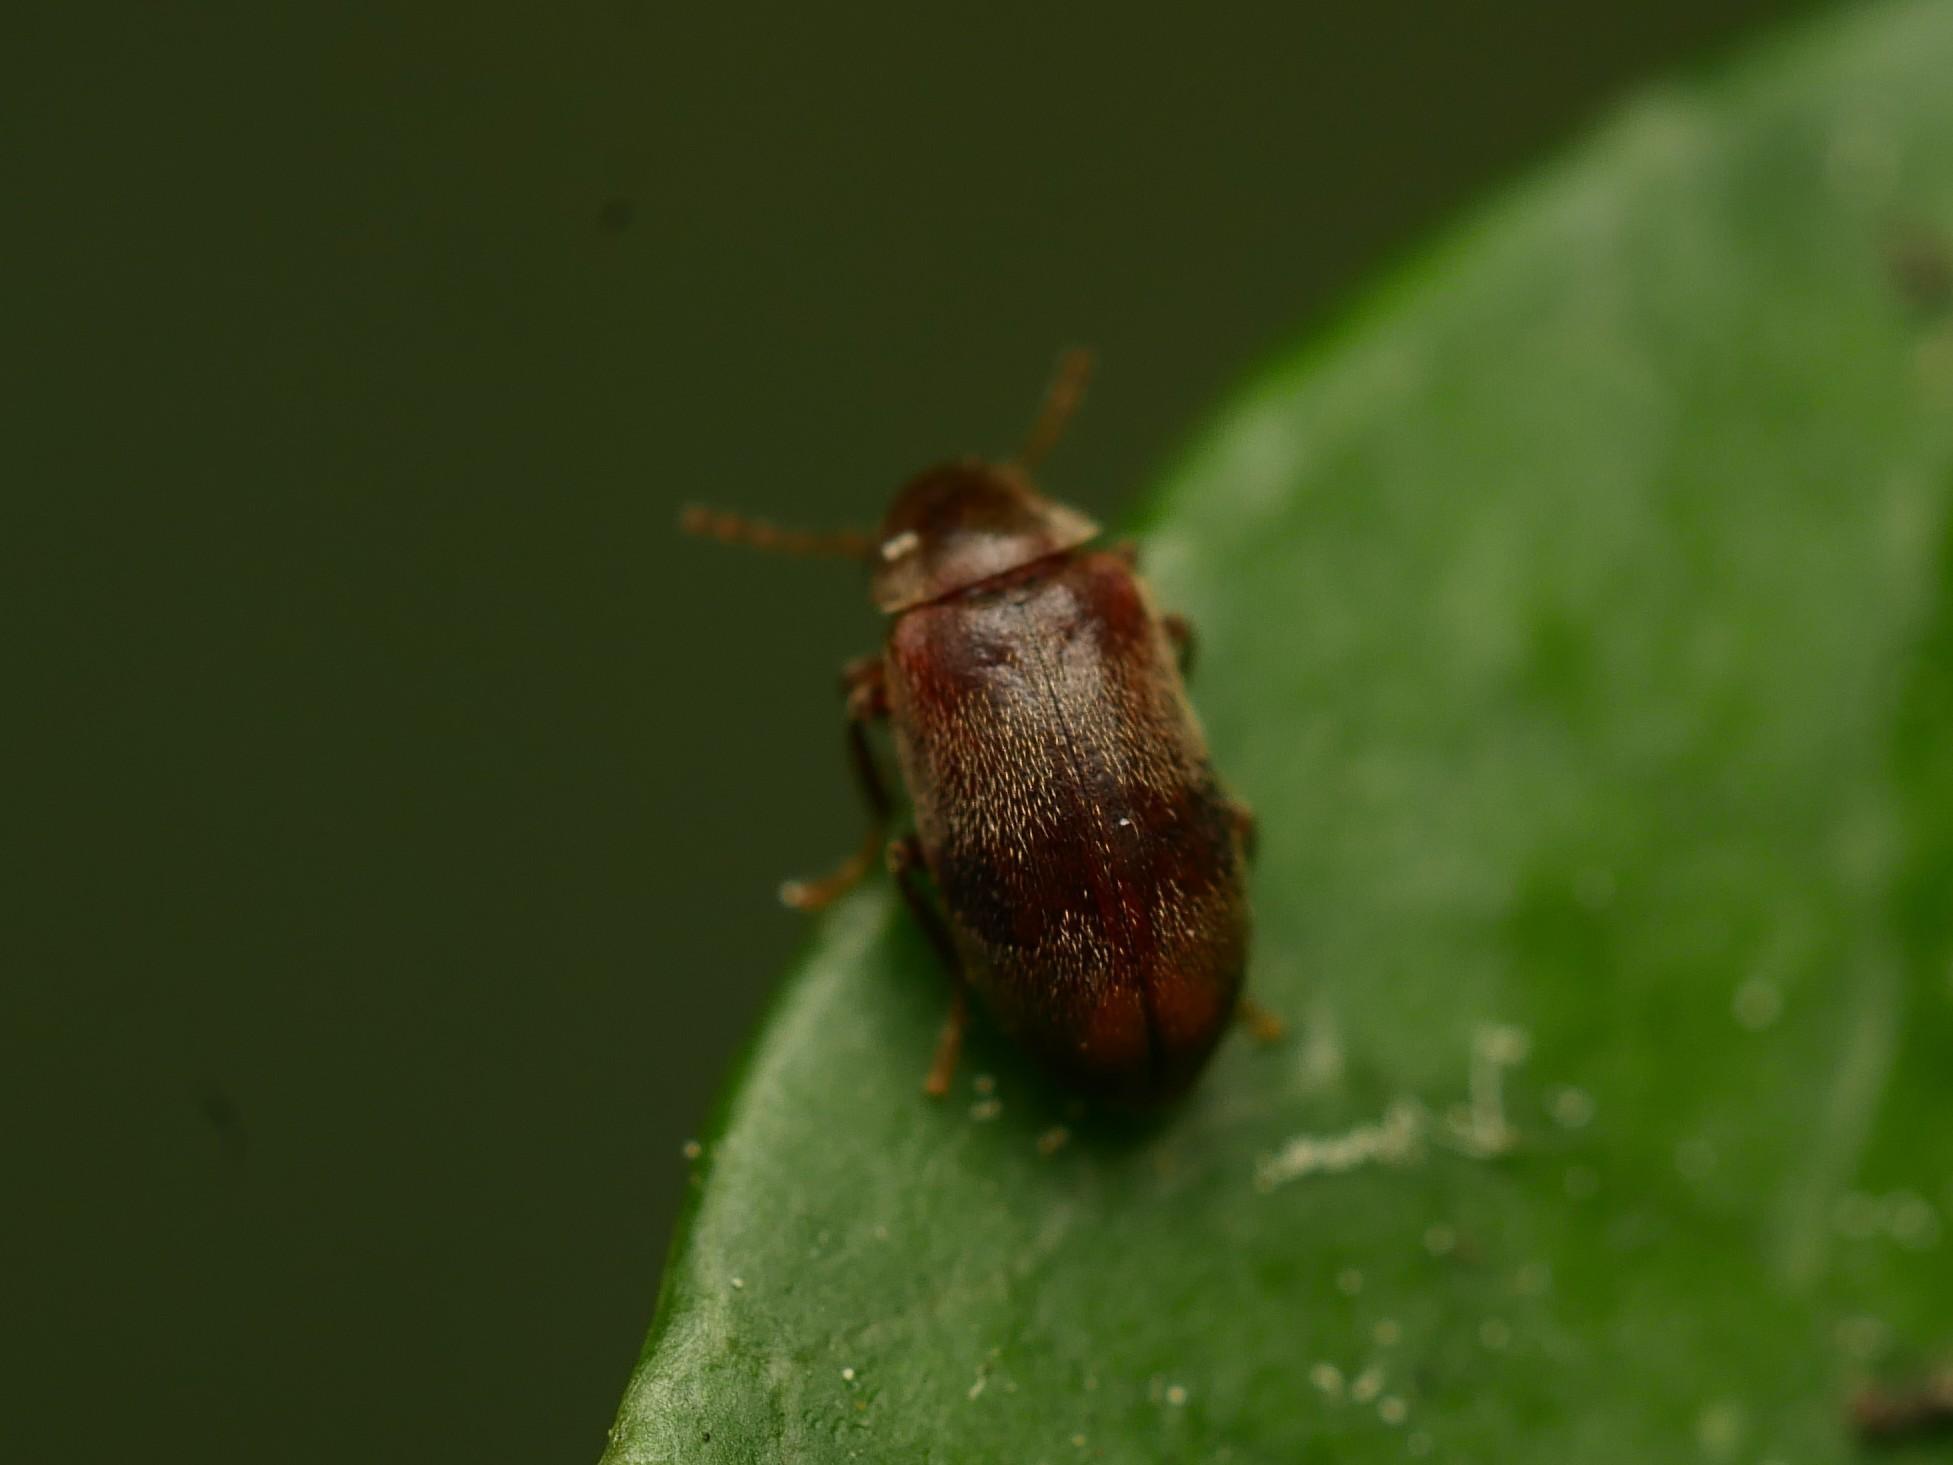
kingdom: Animalia
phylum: Arthropoda
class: Insecta
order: Coleoptera
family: Ptinidae
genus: Ochina
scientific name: Ochina ptinoides
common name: Ivy boring beetle
